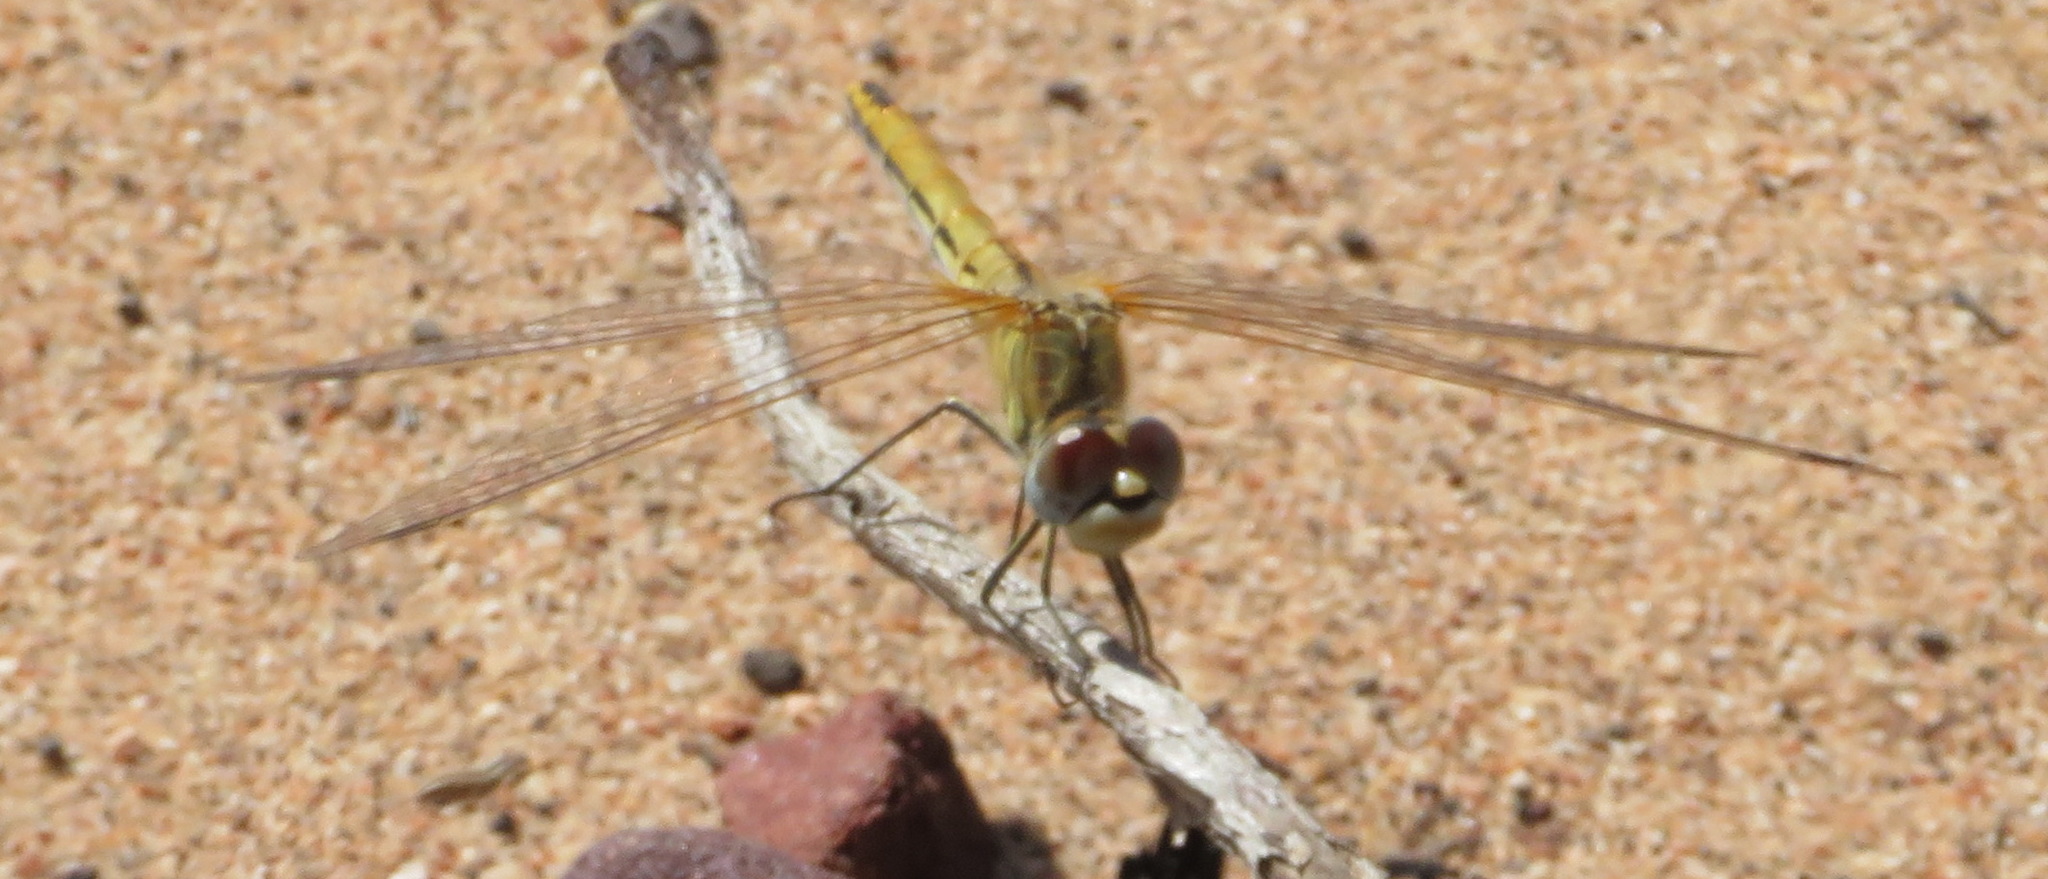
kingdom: Animalia
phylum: Arthropoda
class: Insecta
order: Odonata
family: Libellulidae
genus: Sympetrum
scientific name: Sympetrum fonscolombii
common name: Red-veined darter
